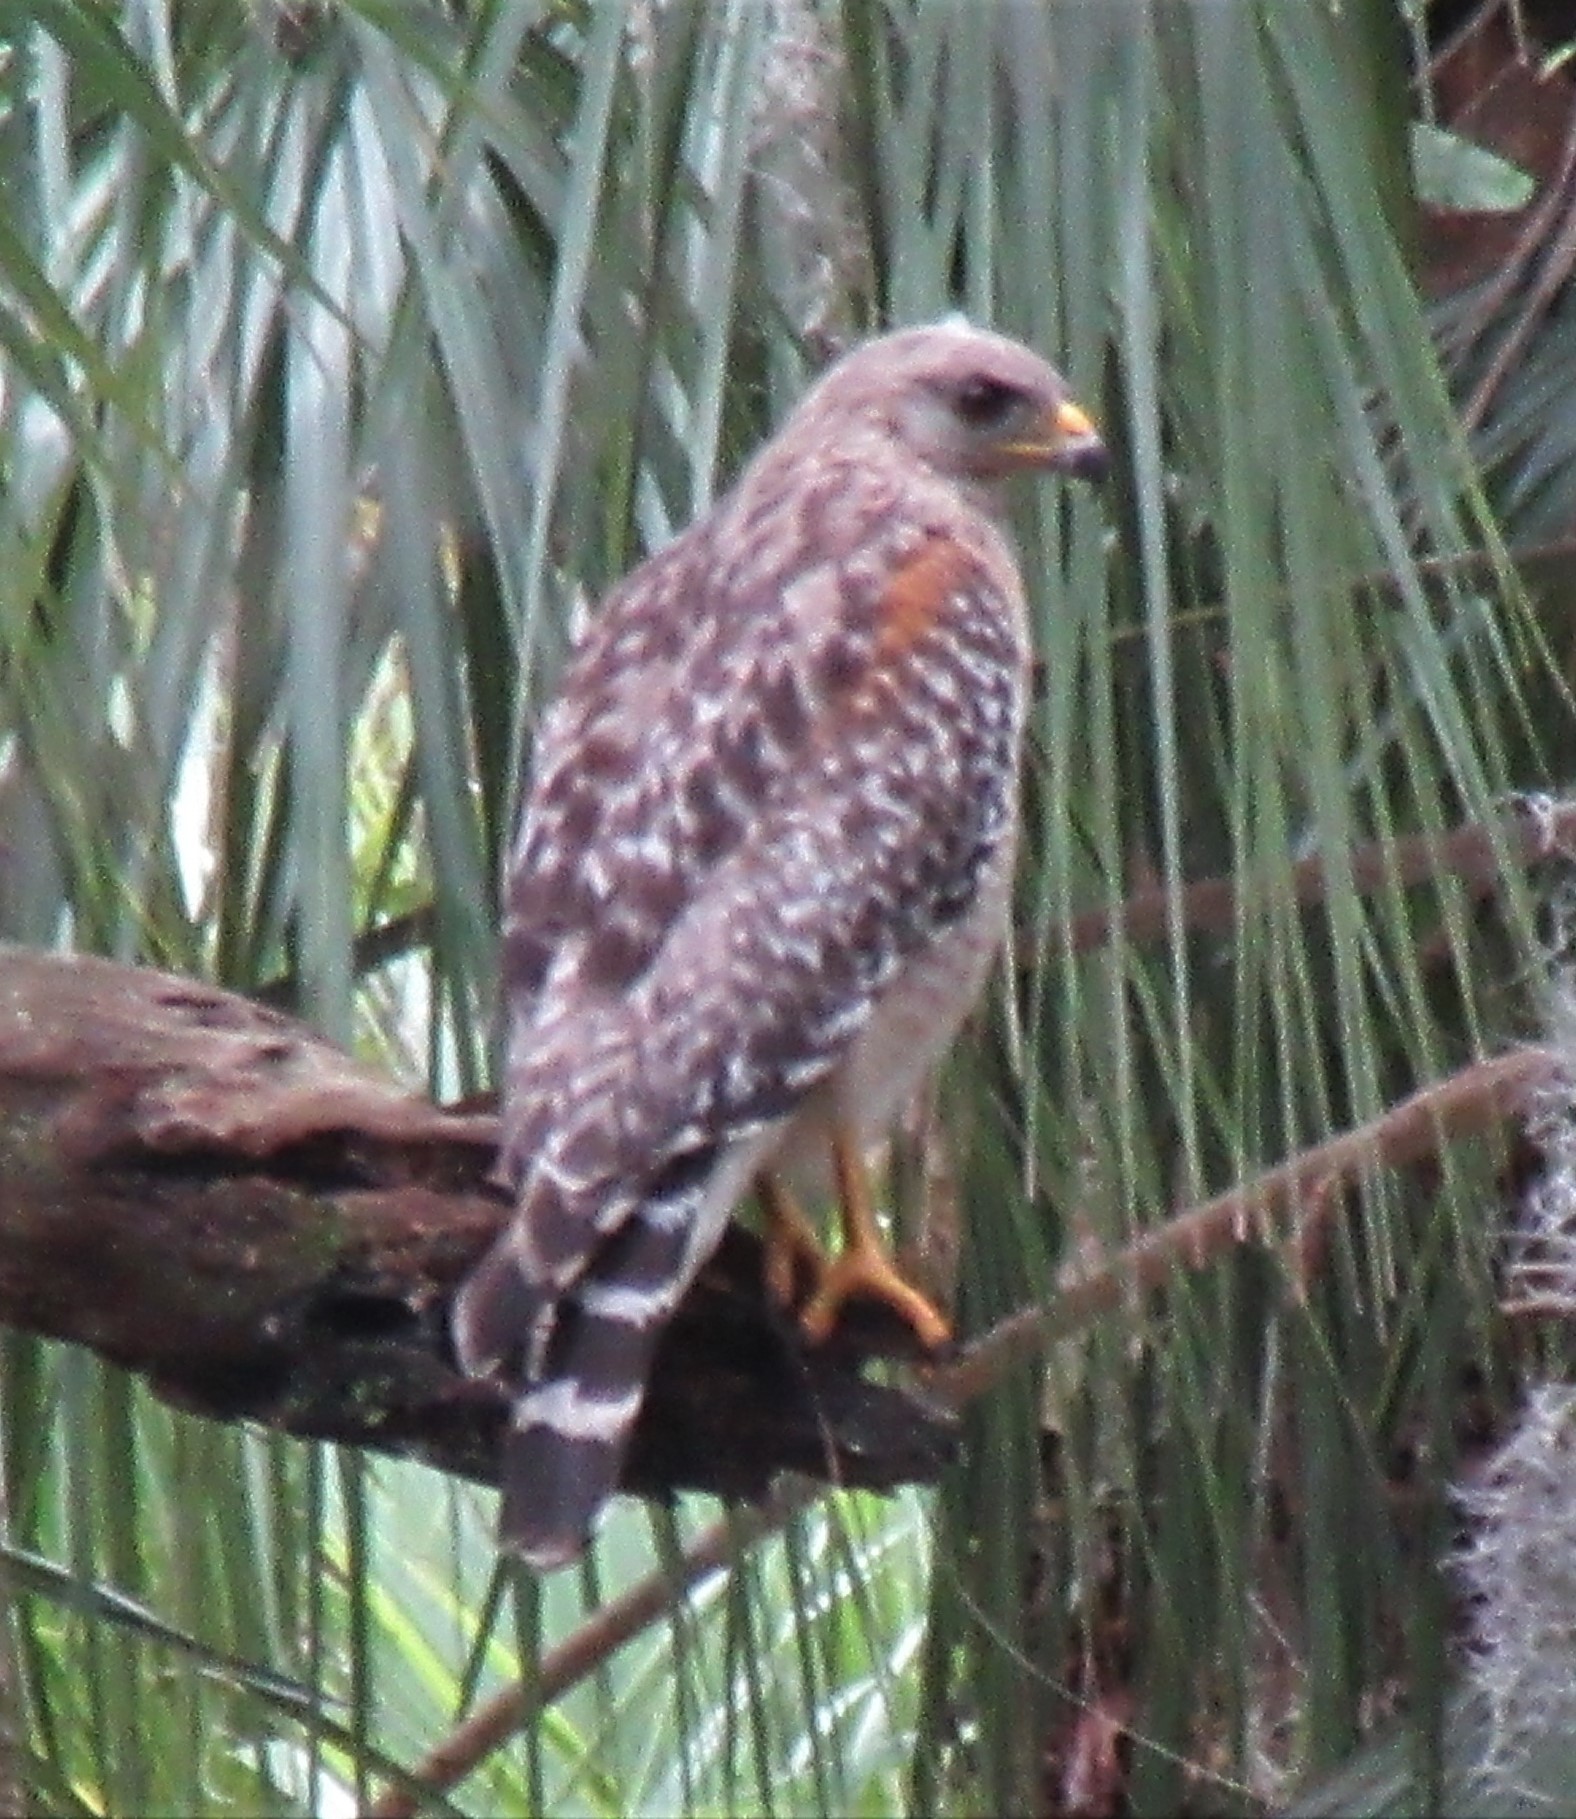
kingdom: Animalia
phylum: Chordata
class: Aves
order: Accipitriformes
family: Accipitridae
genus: Buteo
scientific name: Buteo lineatus
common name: Red-shouldered hawk
